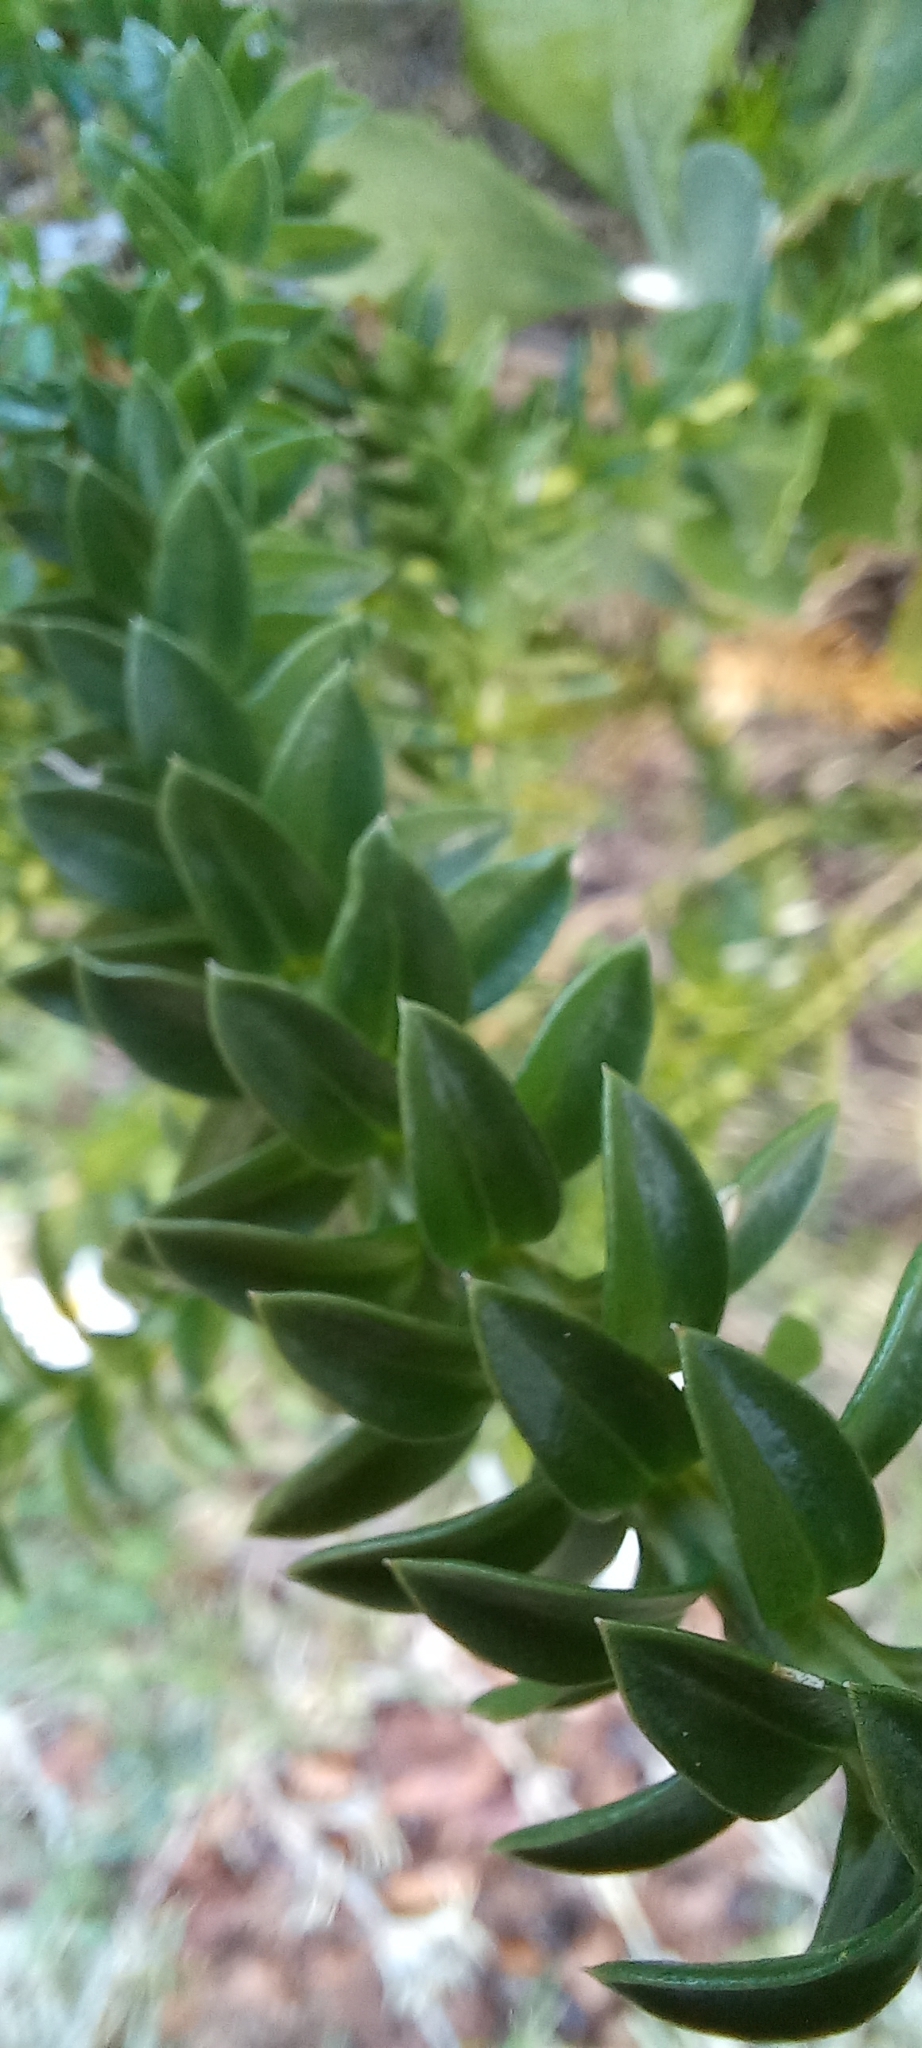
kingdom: Plantae
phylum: Tracheophyta
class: Magnoliopsida
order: Asterales
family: Asteraceae
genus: Felicia
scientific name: Felicia echinata
